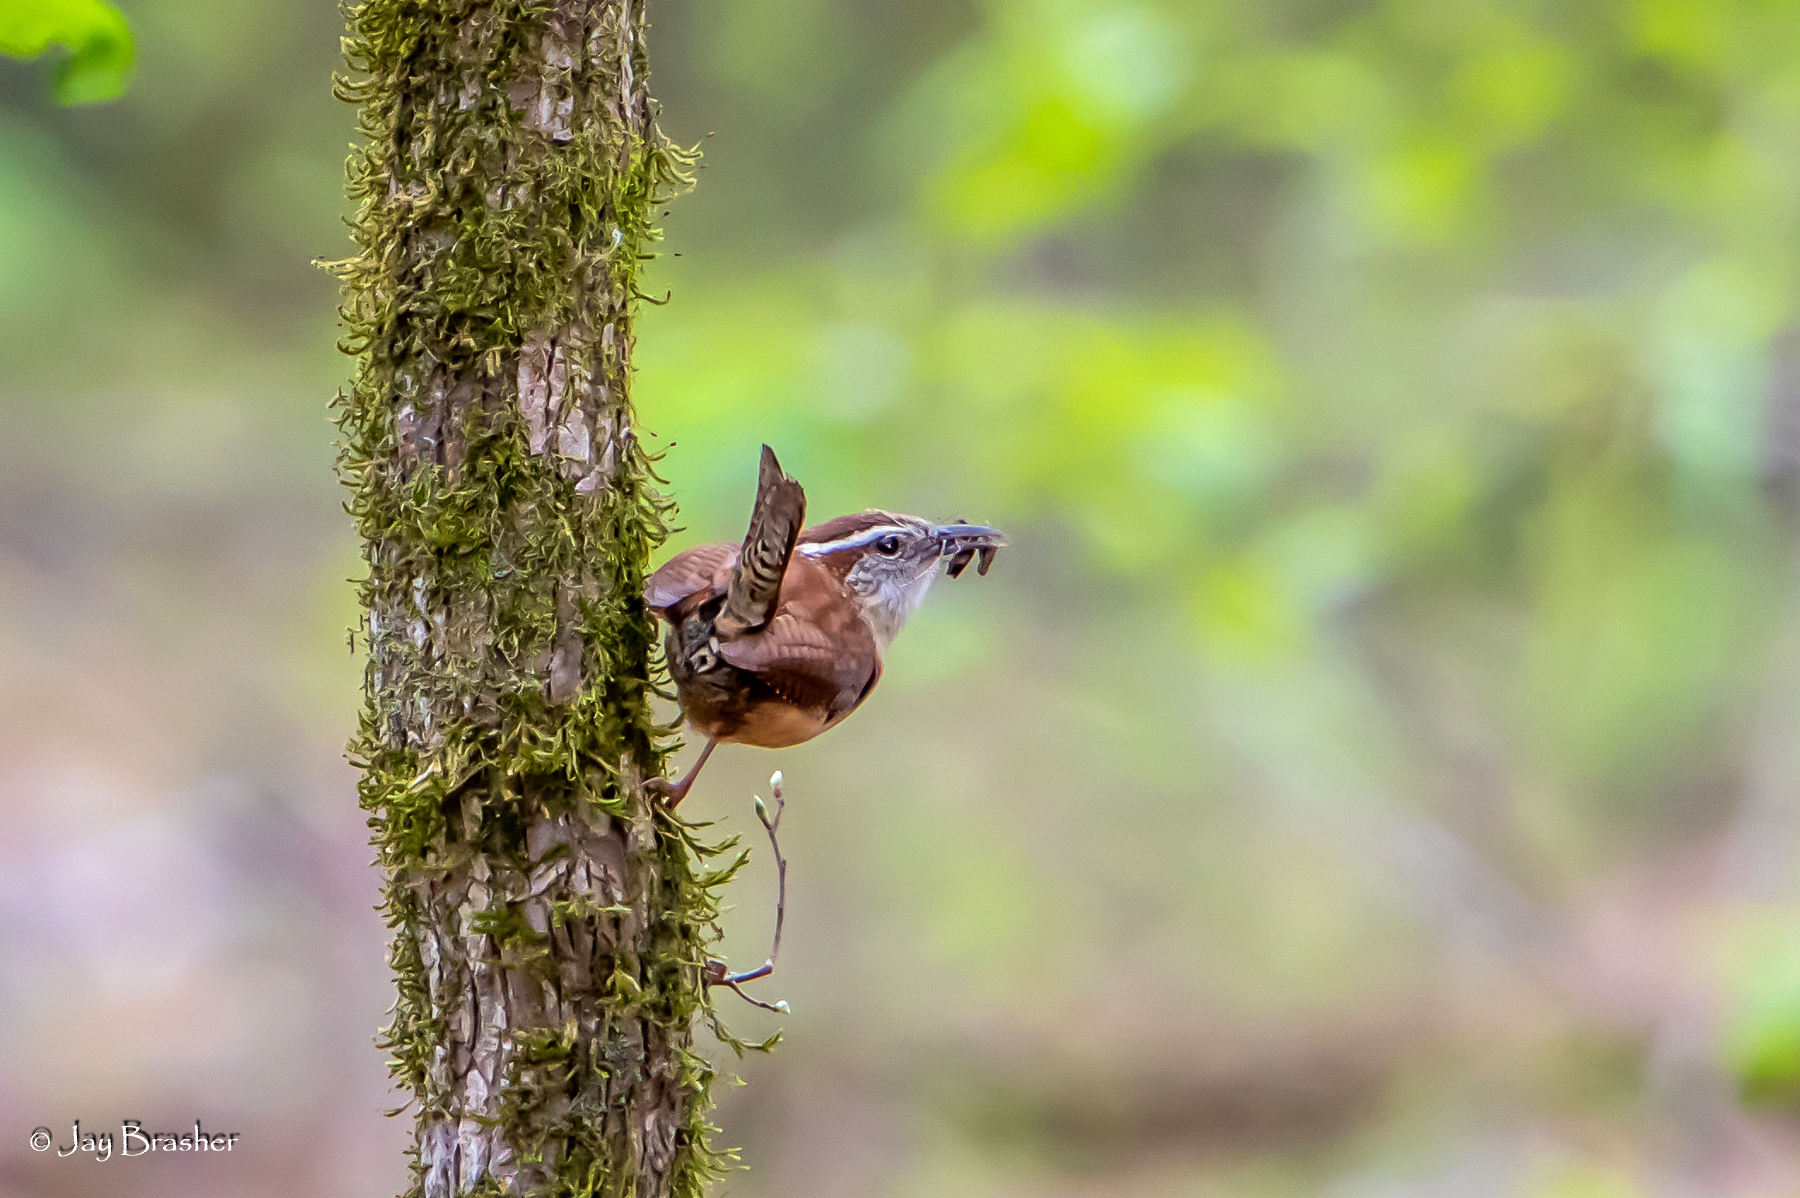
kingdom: Animalia
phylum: Chordata
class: Aves
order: Passeriformes
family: Troglodytidae
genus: Thryothorus
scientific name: Thryothorus ludovicianus
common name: Carolina wren
